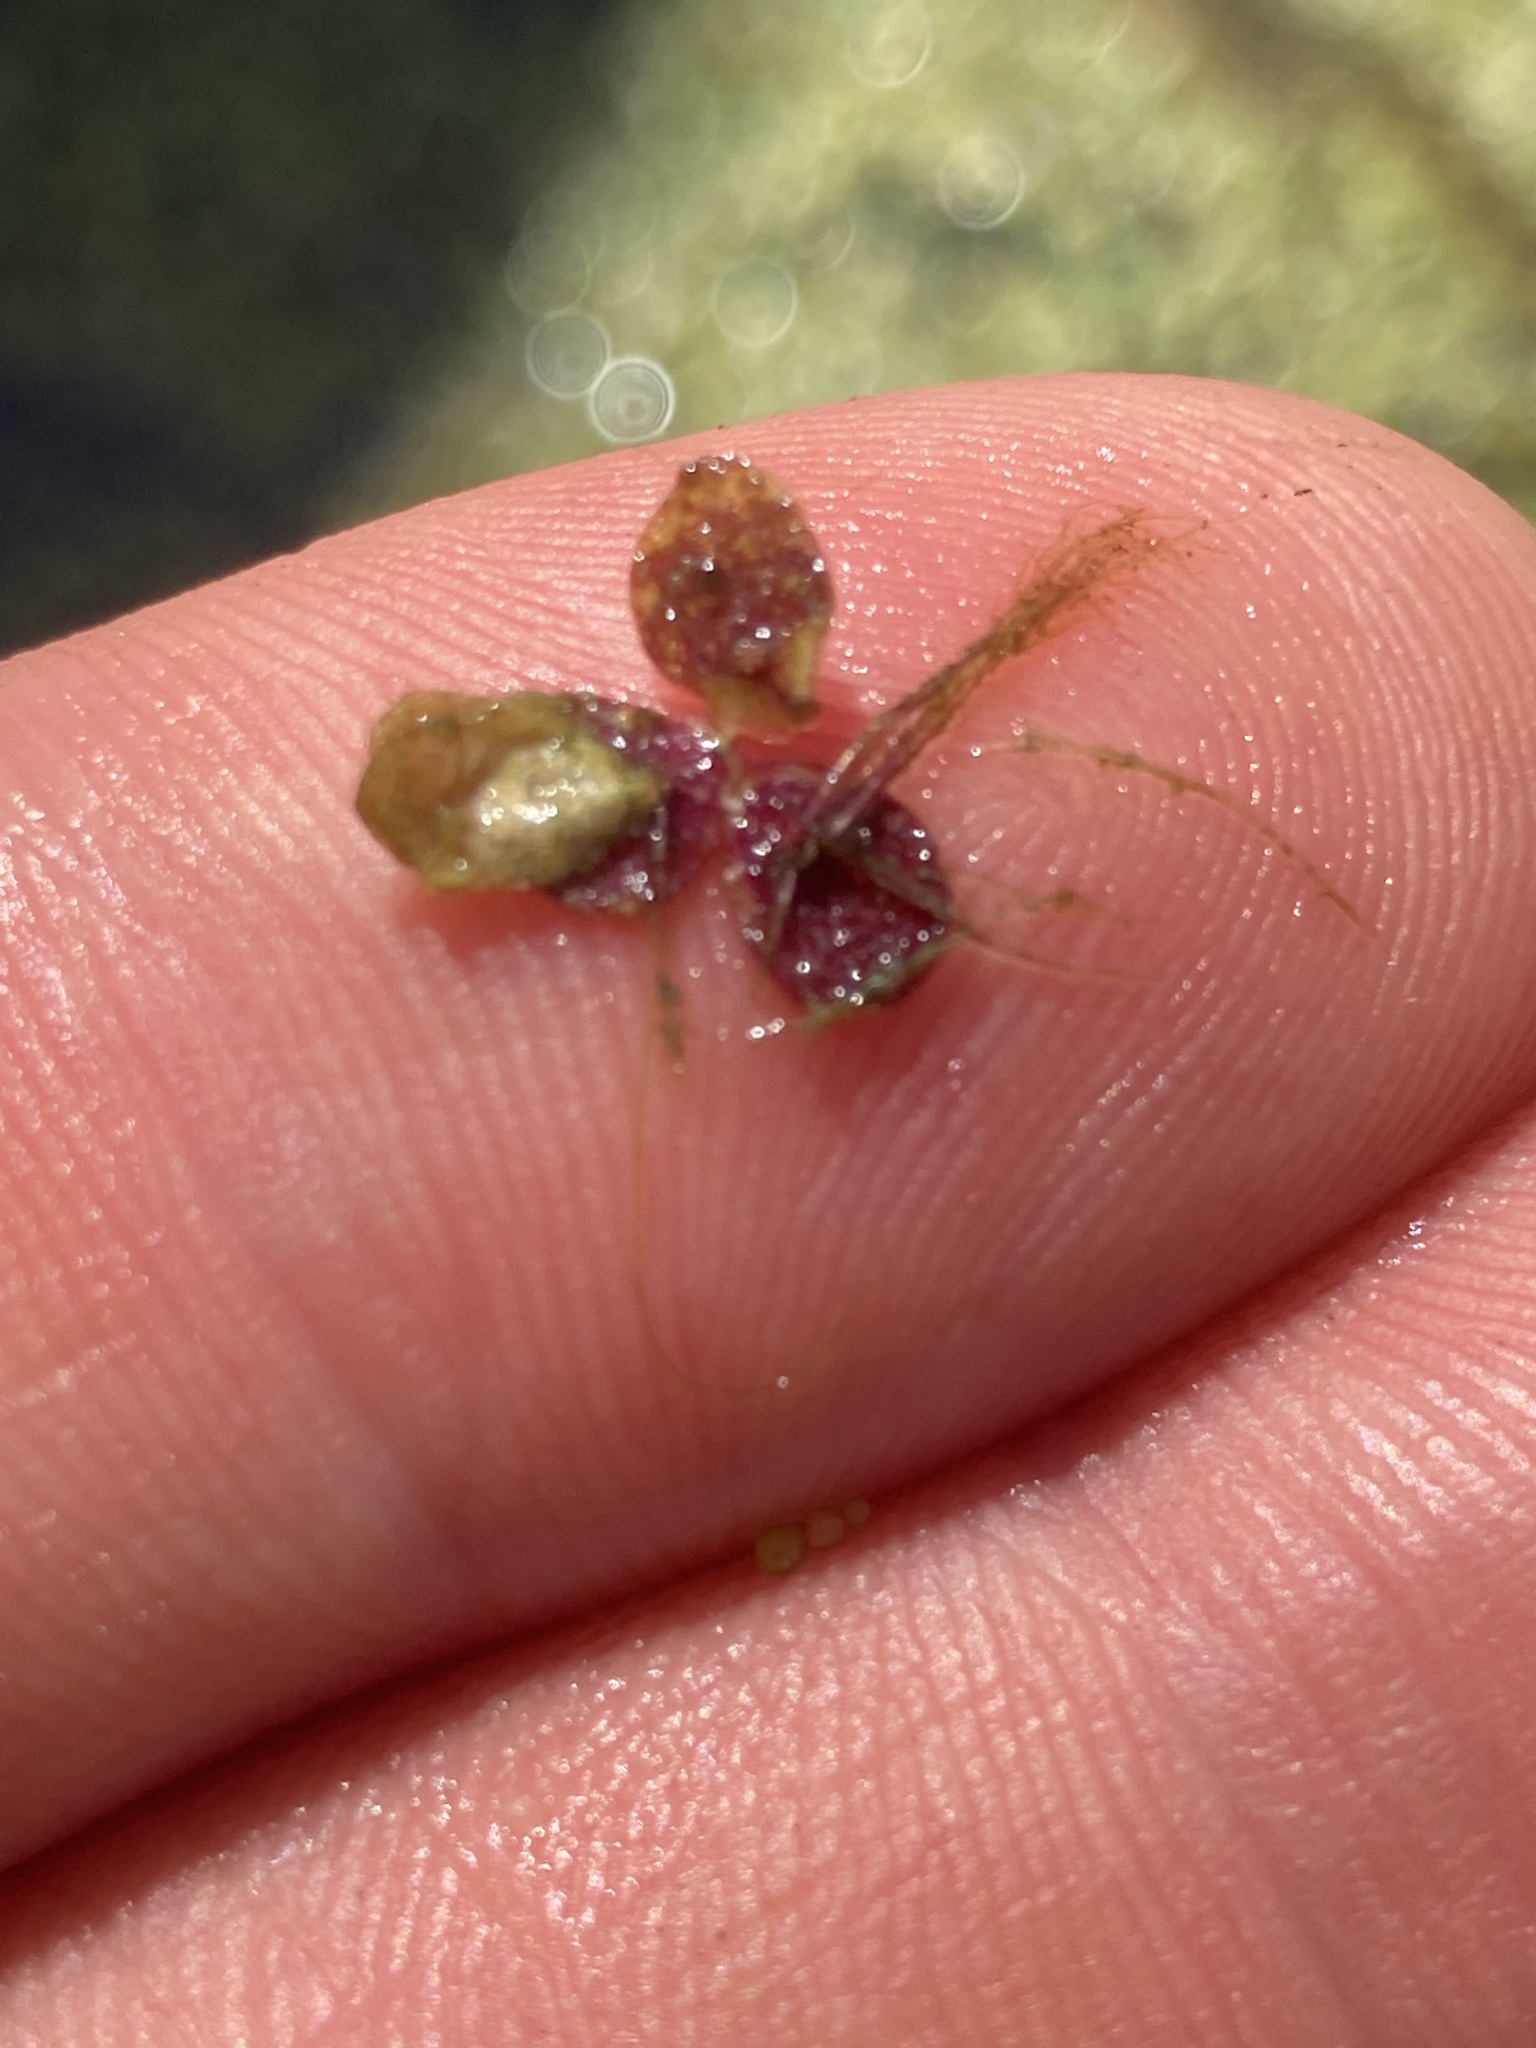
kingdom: Plantae
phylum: Tracheophyta
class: Liliopsida
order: Alismatales
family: Araceae
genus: Spirodela
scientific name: Spirodela polyrhiza
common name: Great duckweed
